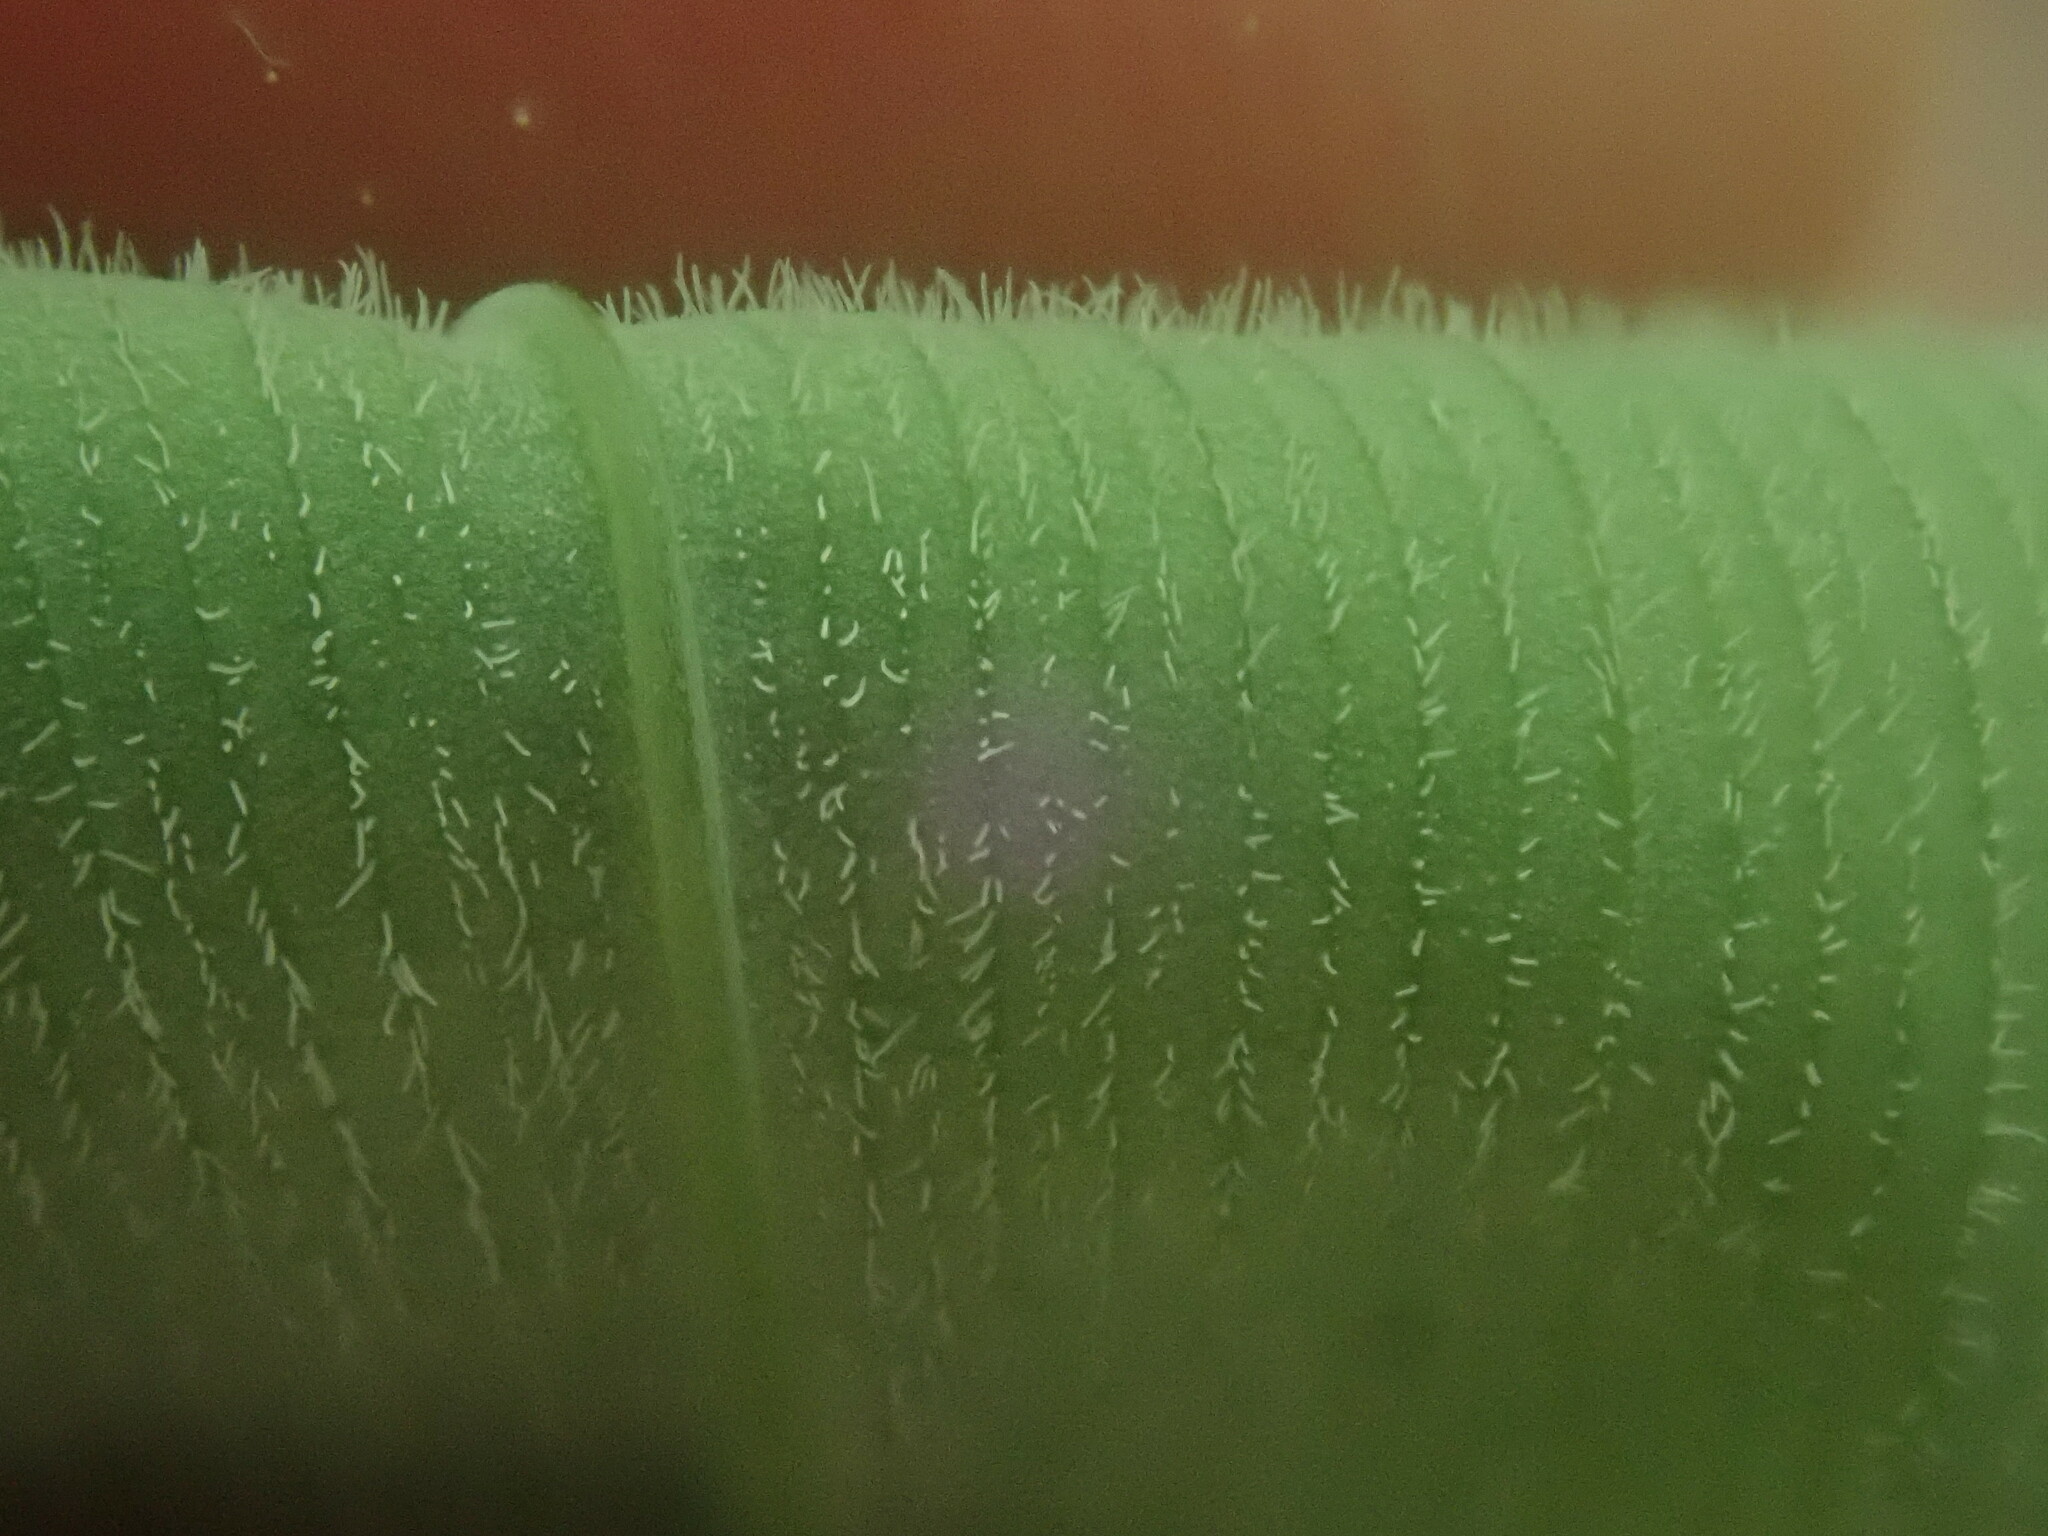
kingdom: Plantae
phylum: Tracheophyta
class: Liliopsida
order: Asparagales
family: Asparagaceae
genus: Polygonatum
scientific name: Polygonatum pubescens
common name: Downy solomon's seal
